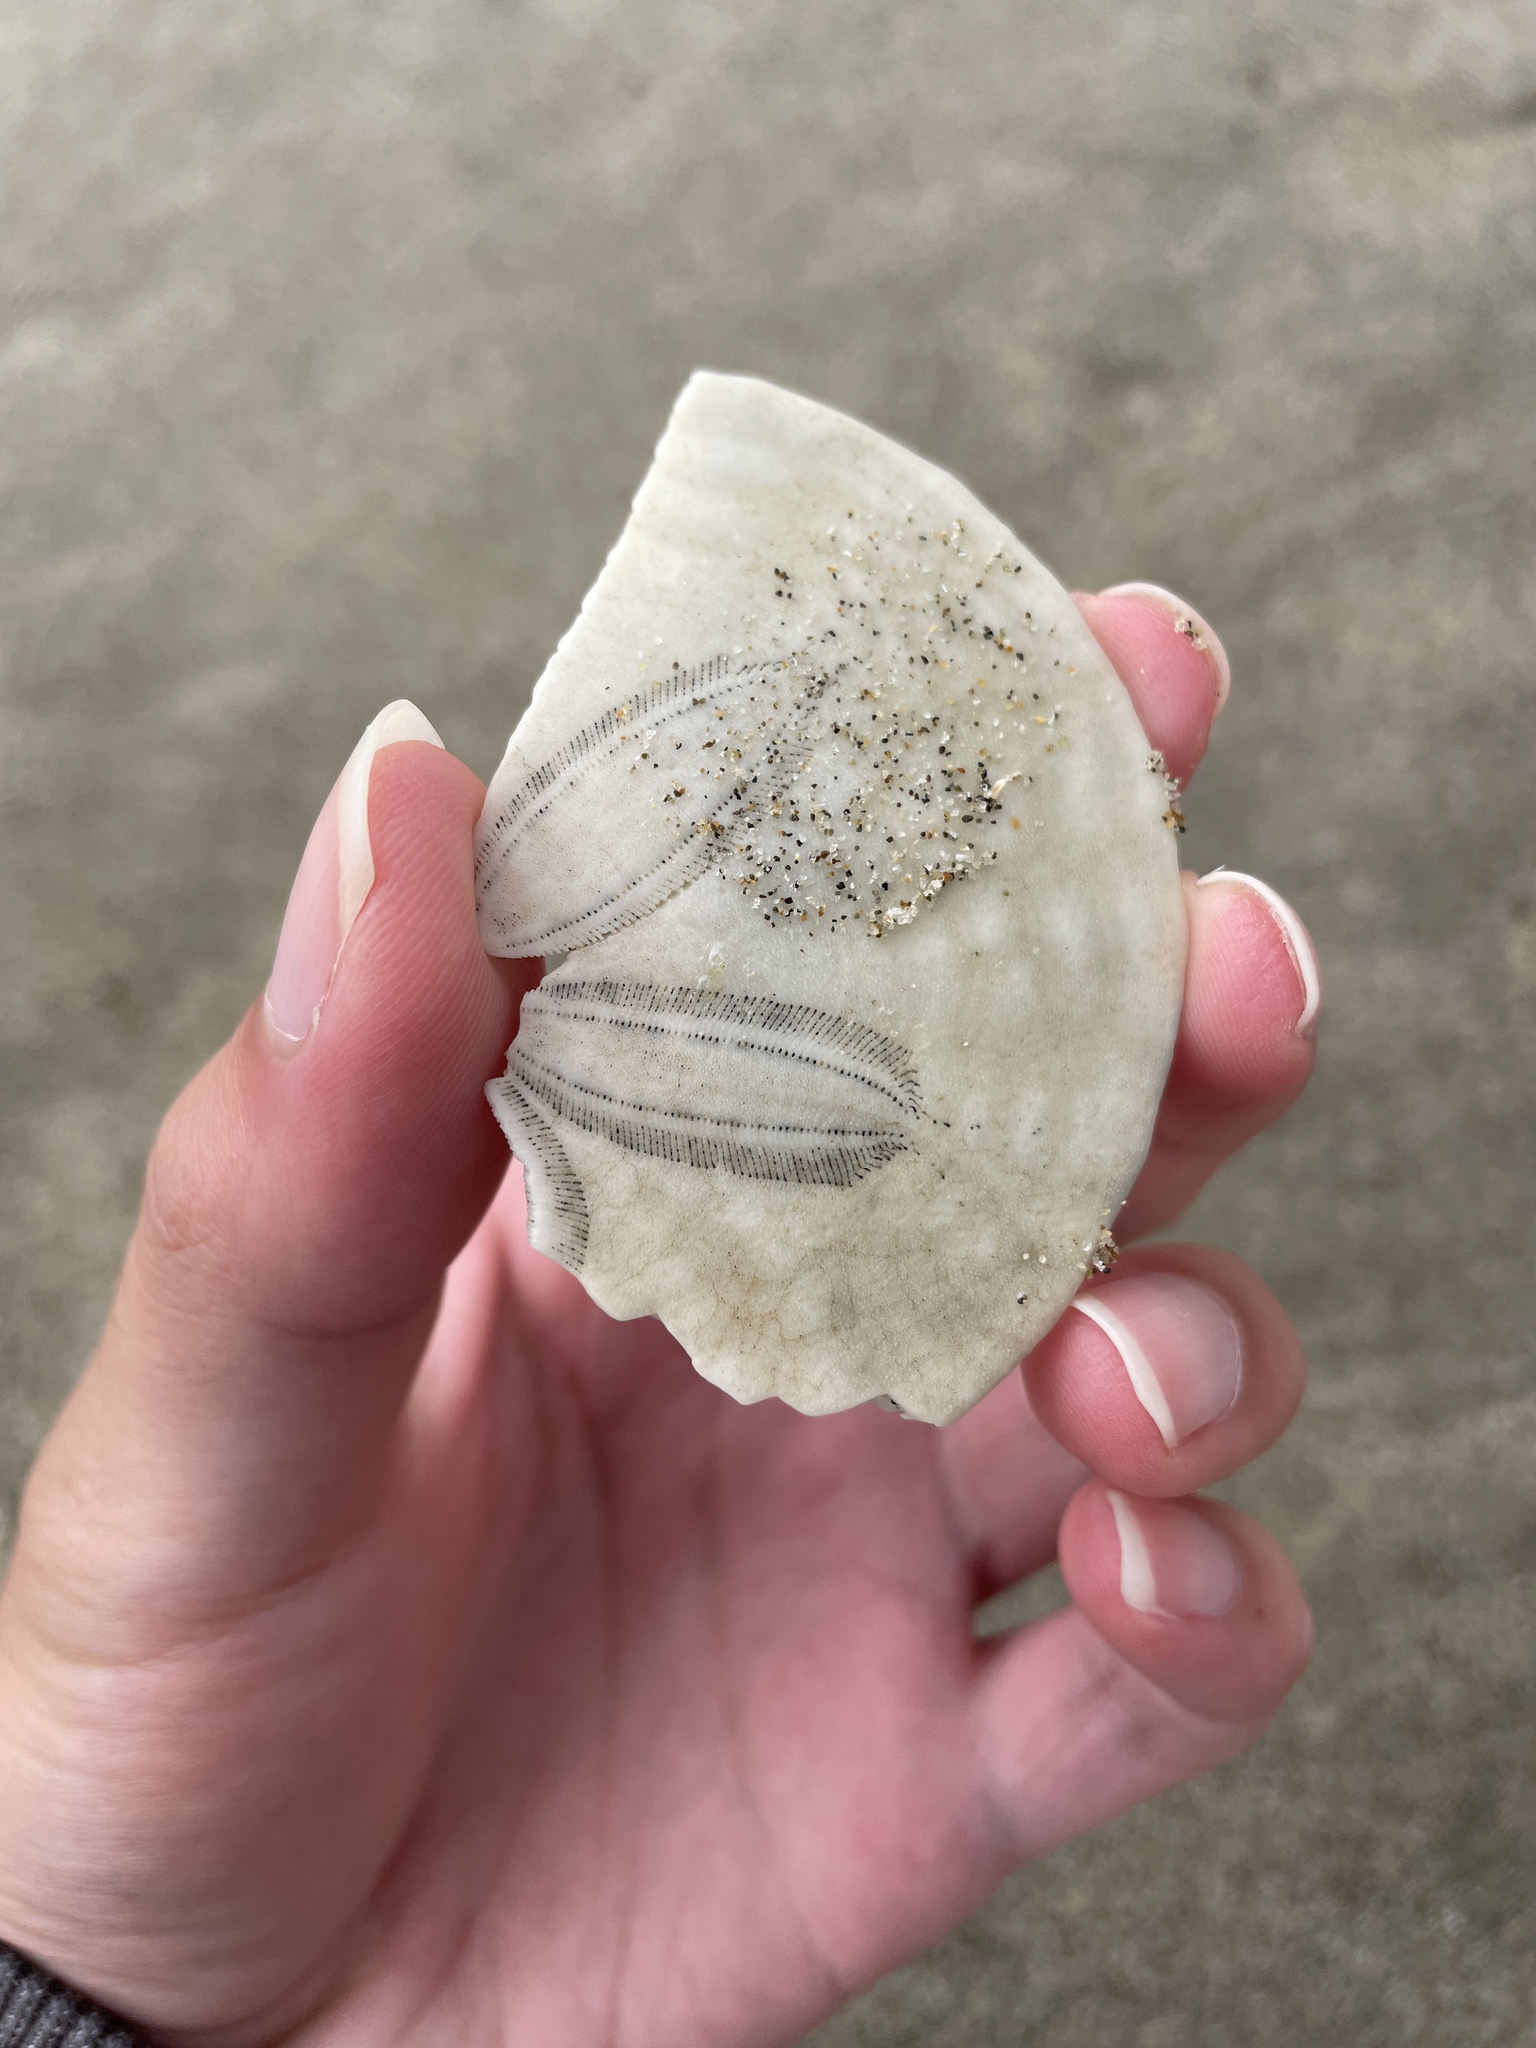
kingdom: Animalia
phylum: Echinodermata
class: Echinoidea
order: Echinolampadacea
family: Dendrasteridae
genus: Dendraster
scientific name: Dendraster excentricus
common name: Eccentric sand dollar sea urchin
